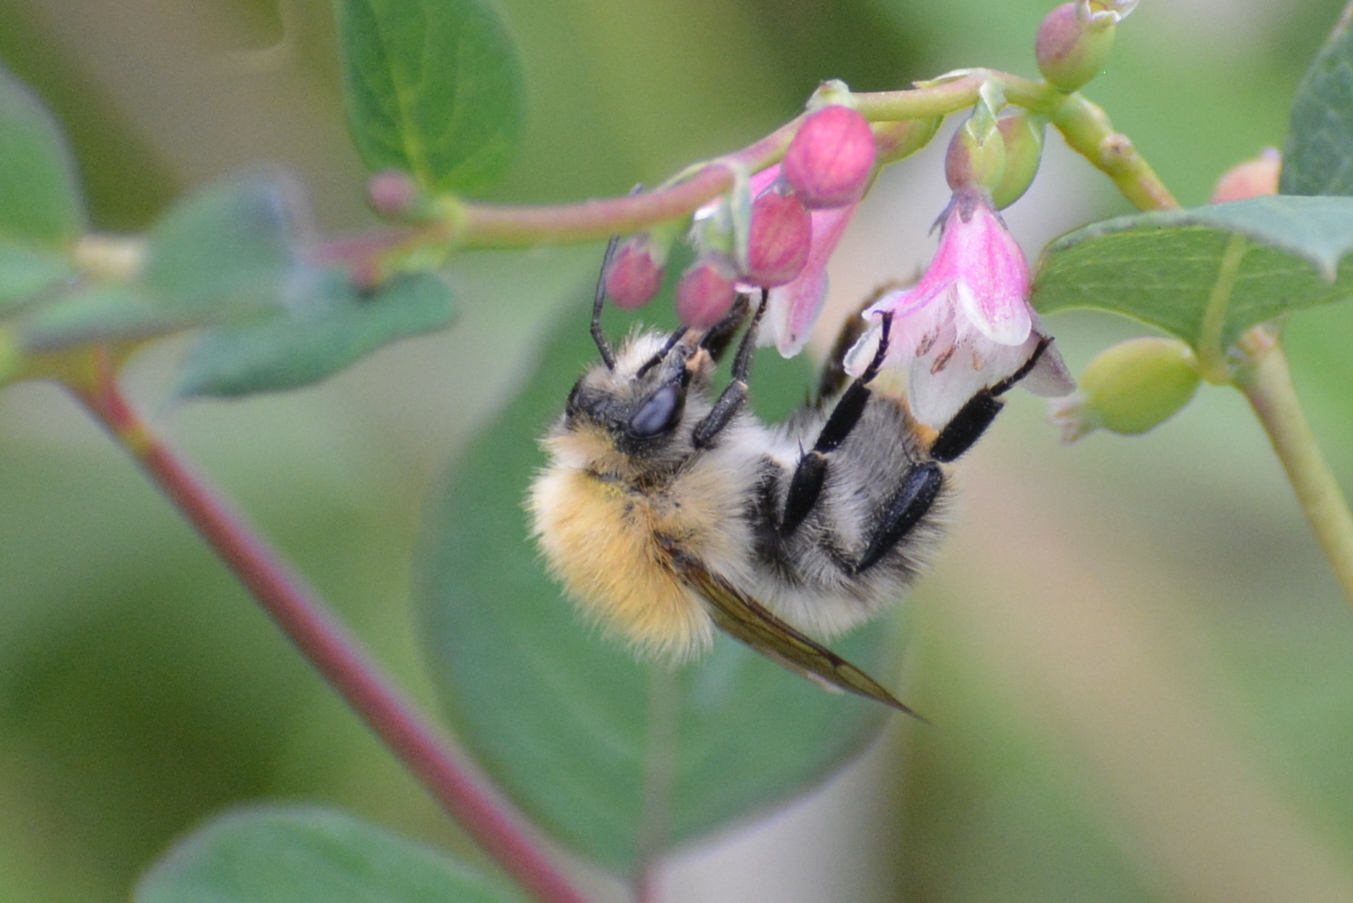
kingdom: Animalia
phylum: Arthropoda
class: Insecta
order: Hymenoptera
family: Apidae
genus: Bombus
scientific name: Bombus pascuorum
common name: Common carder bee
